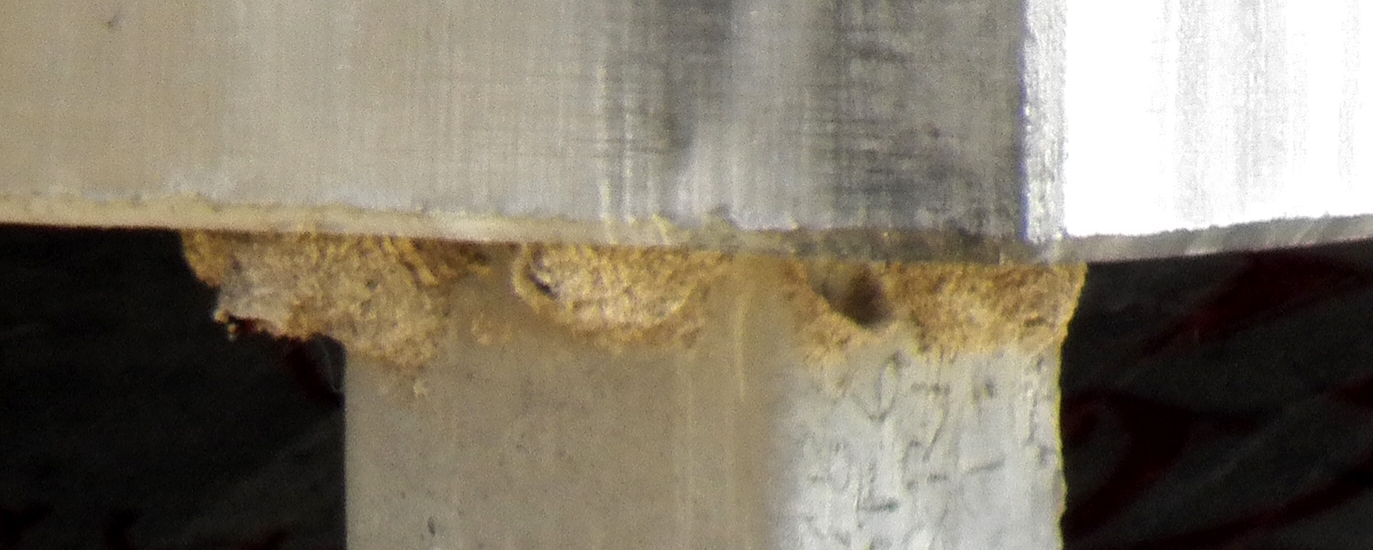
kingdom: Animalia
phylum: Chordata
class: Aves
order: Passeriformes
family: Hirundinidae
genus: Petrochelidon
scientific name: Petrochelidon pyrrhonota
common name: American cliff swallow
